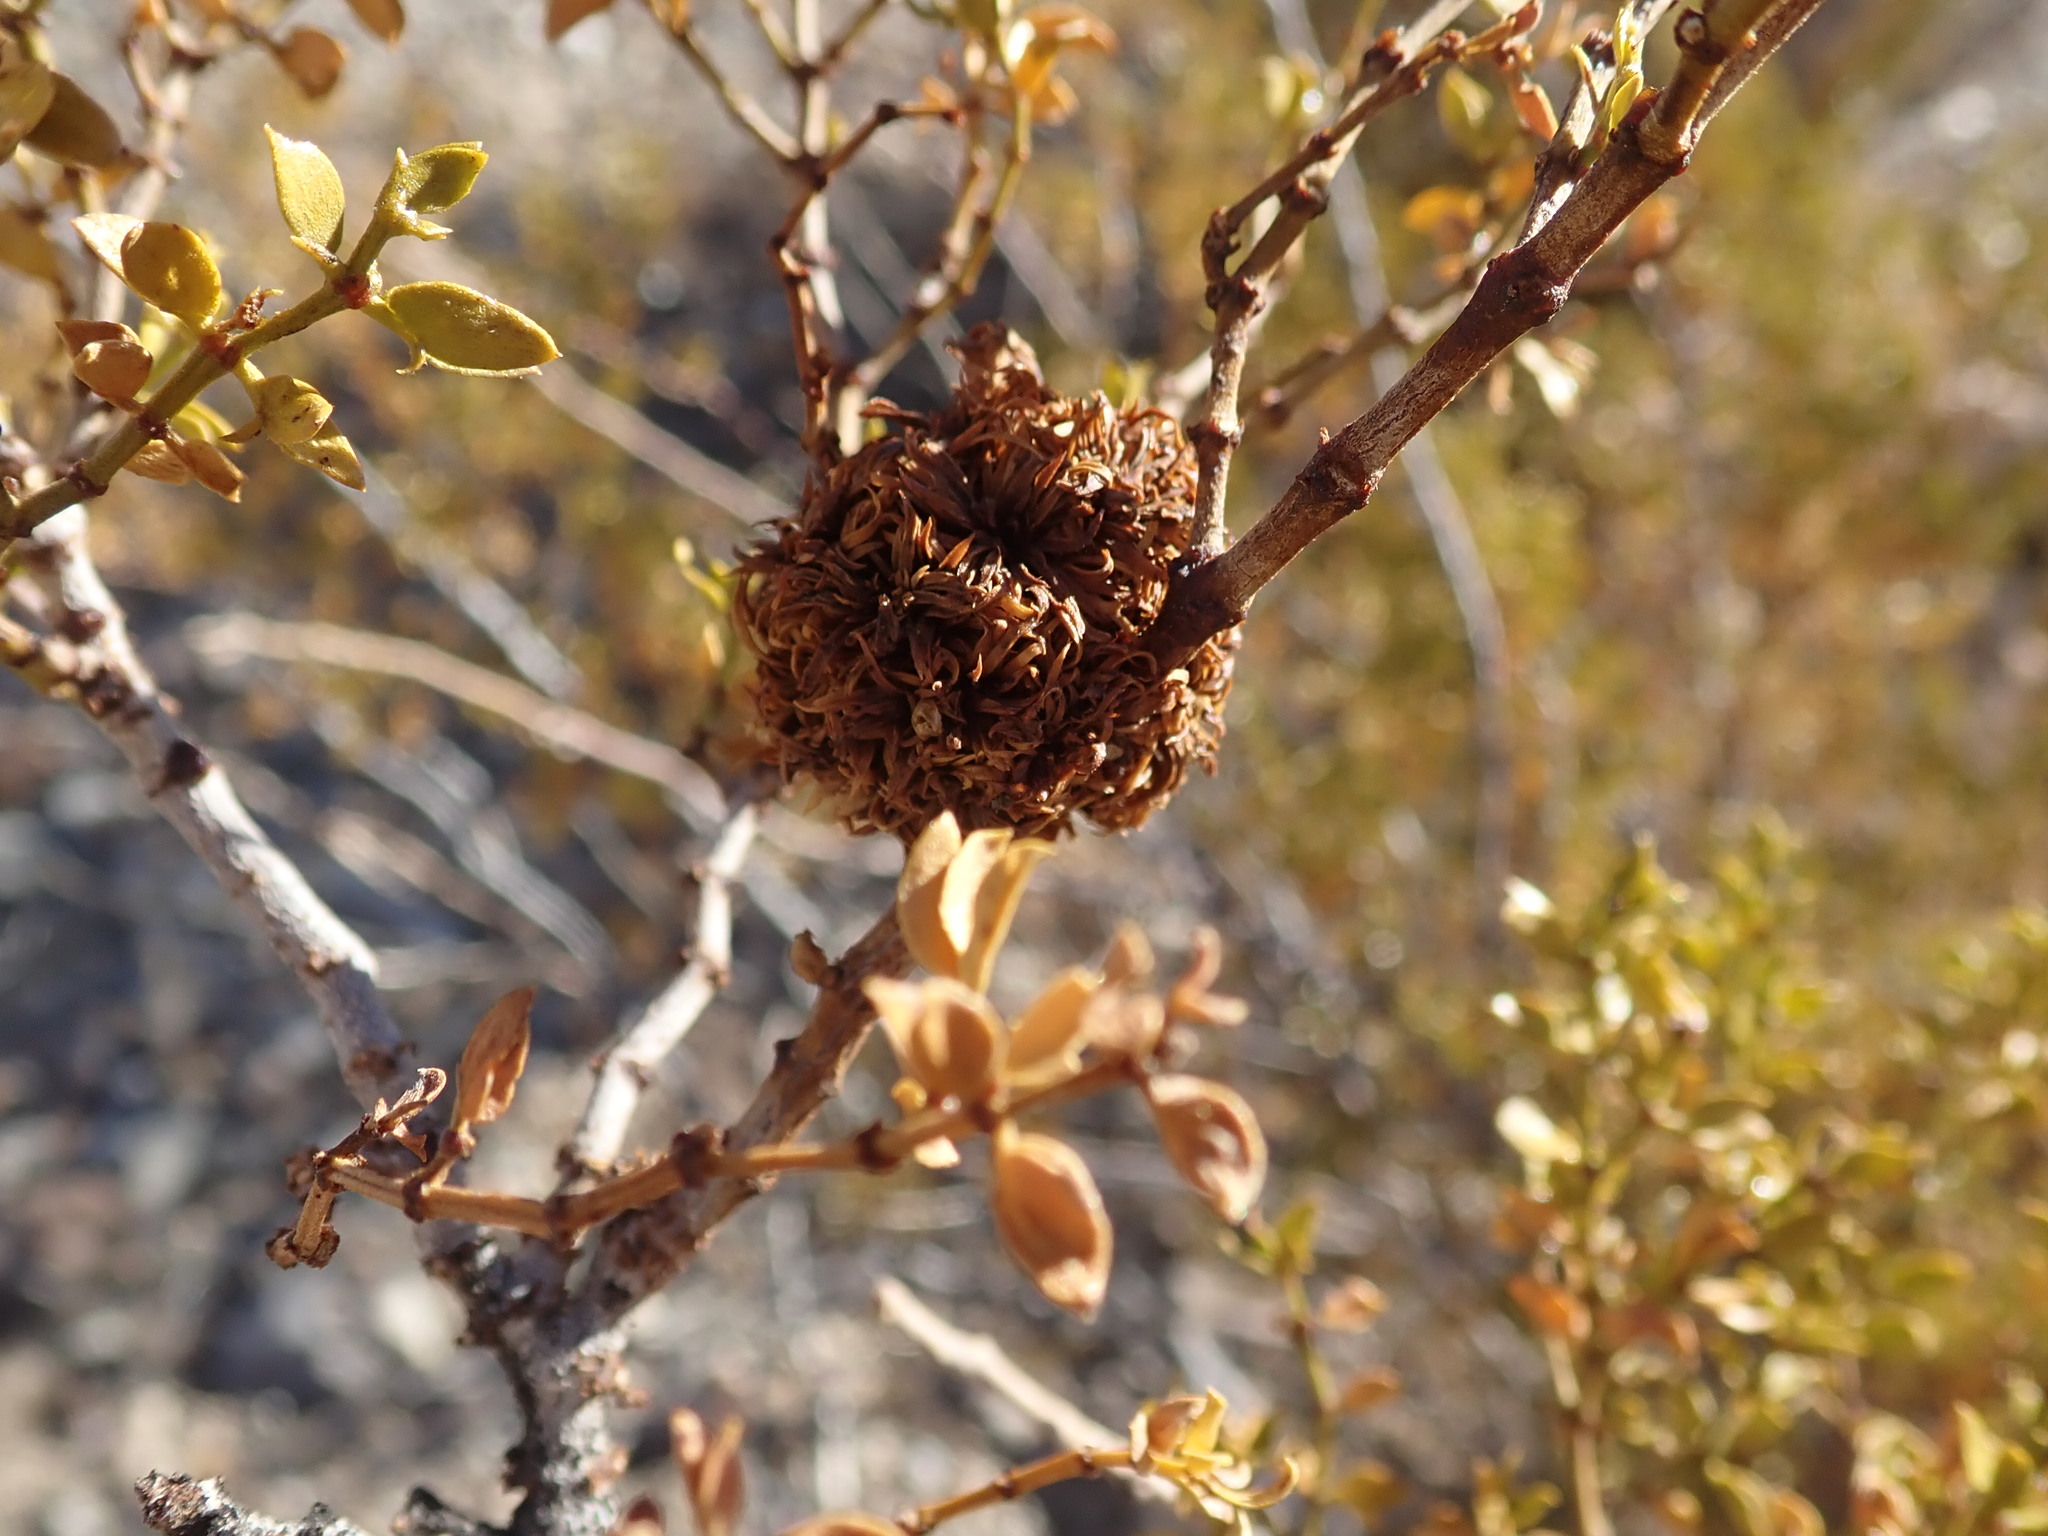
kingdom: Animalia
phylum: Arthropoda
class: Insecta
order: Diptera
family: Cecidomyiidae
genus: Asphondylia
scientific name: Asphondylia auripila
